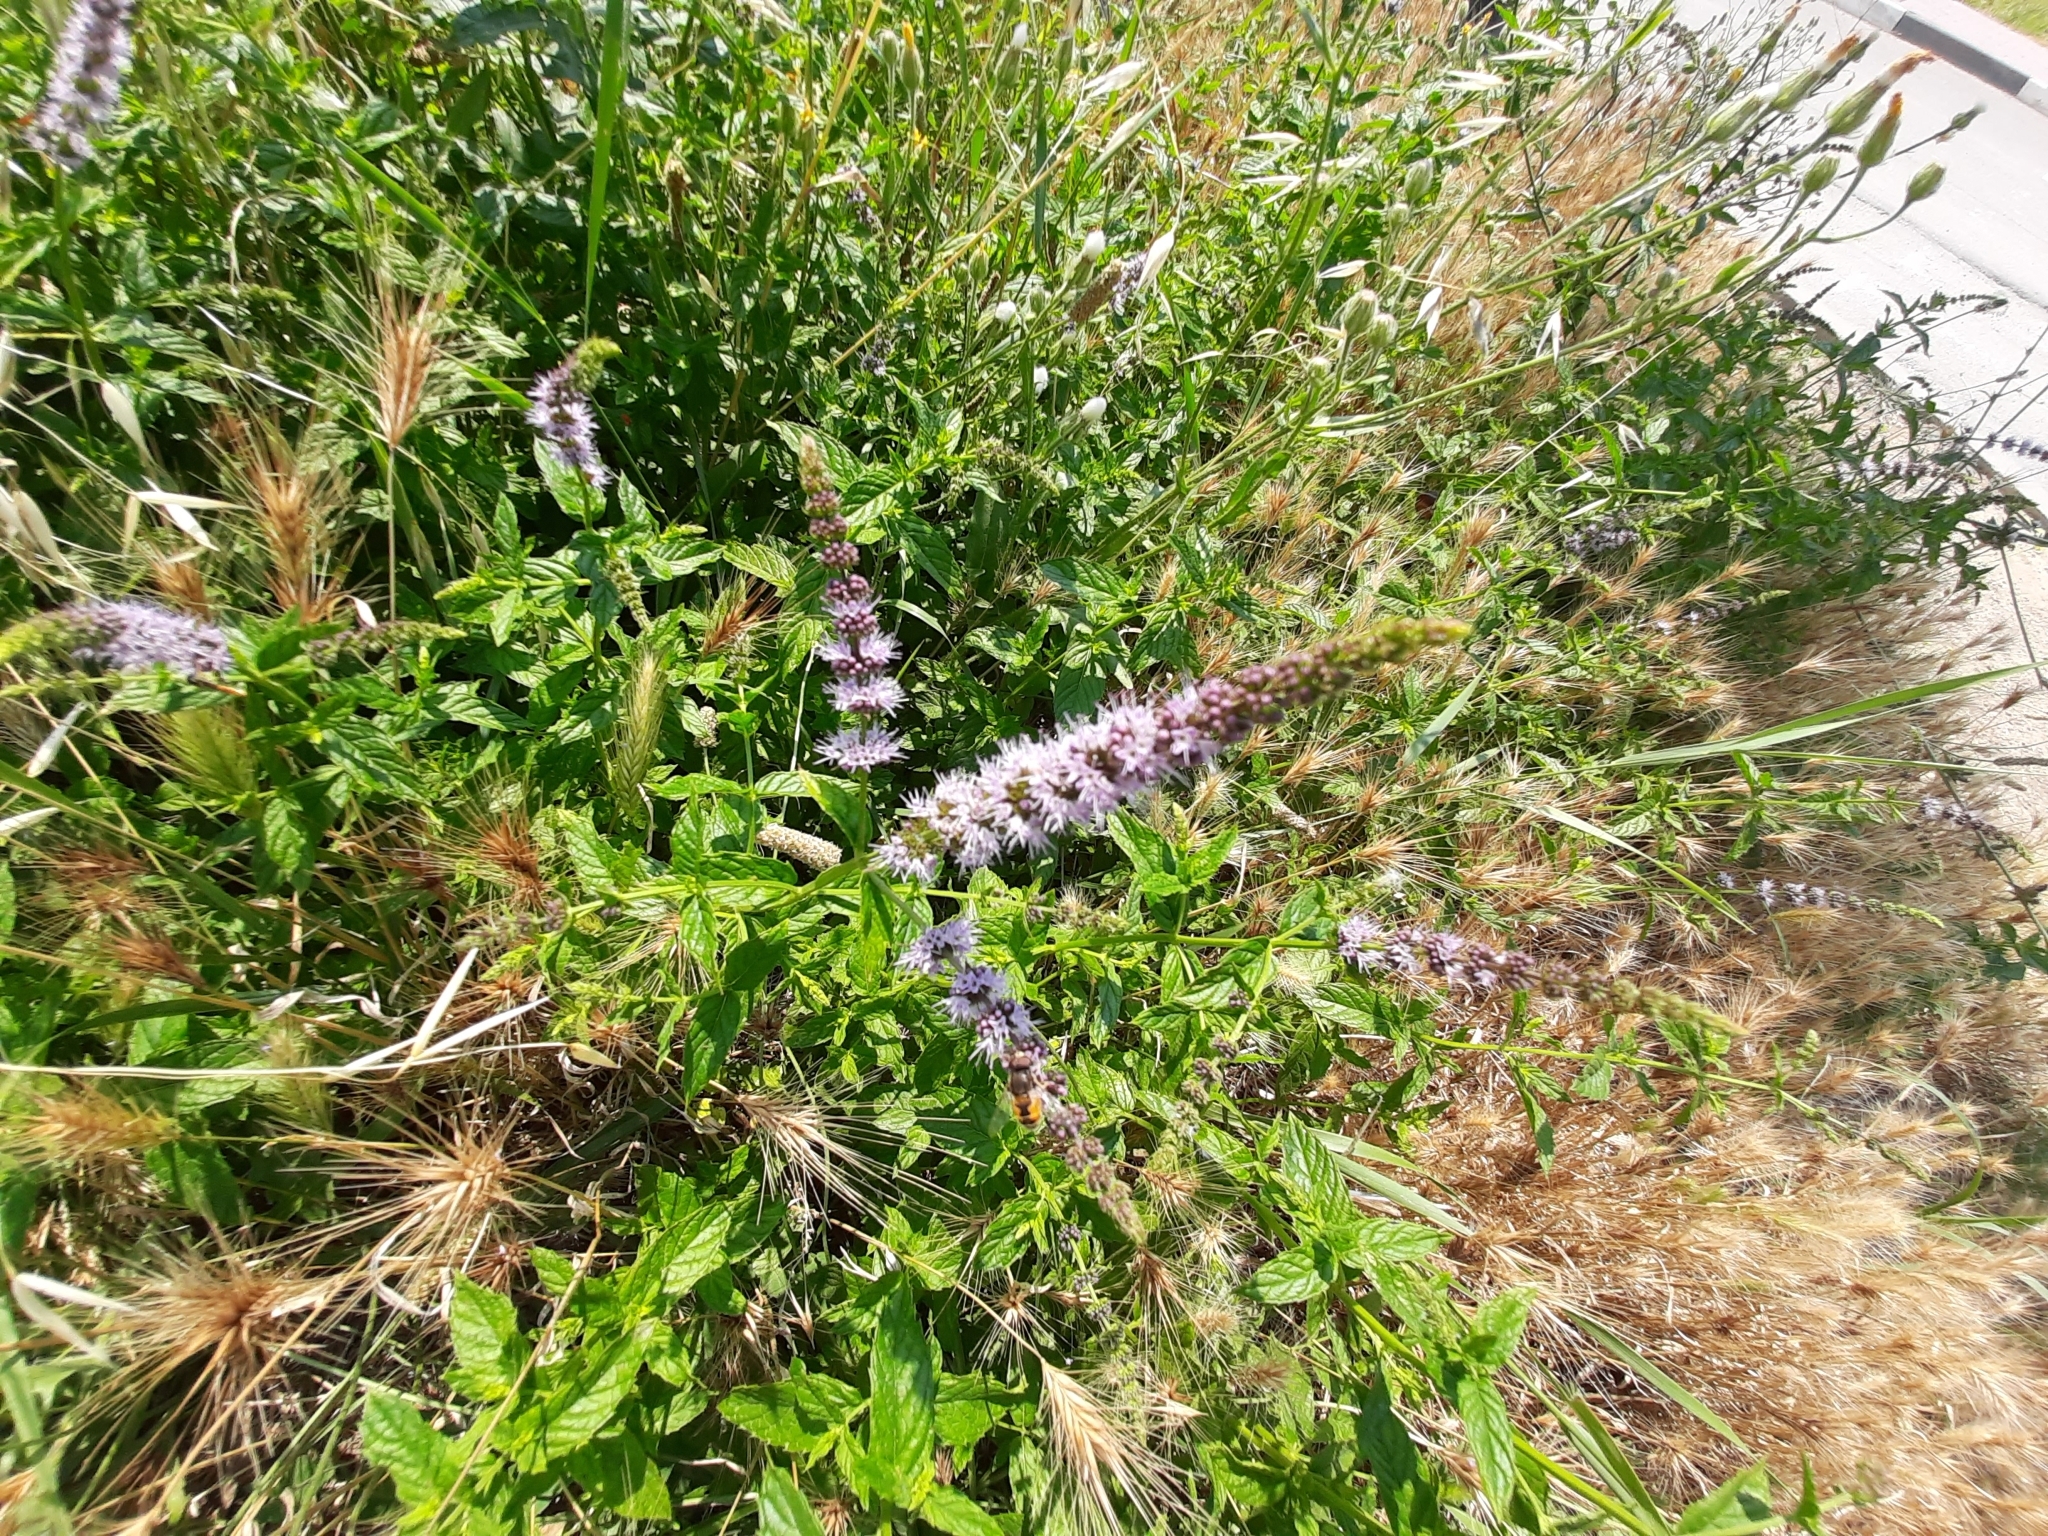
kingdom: Plantae
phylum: Tracheophyta
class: Magnoliopsida
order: Lamiales
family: Lamiaceae
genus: Mentha
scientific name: Mentha spicata
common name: Spearmint
